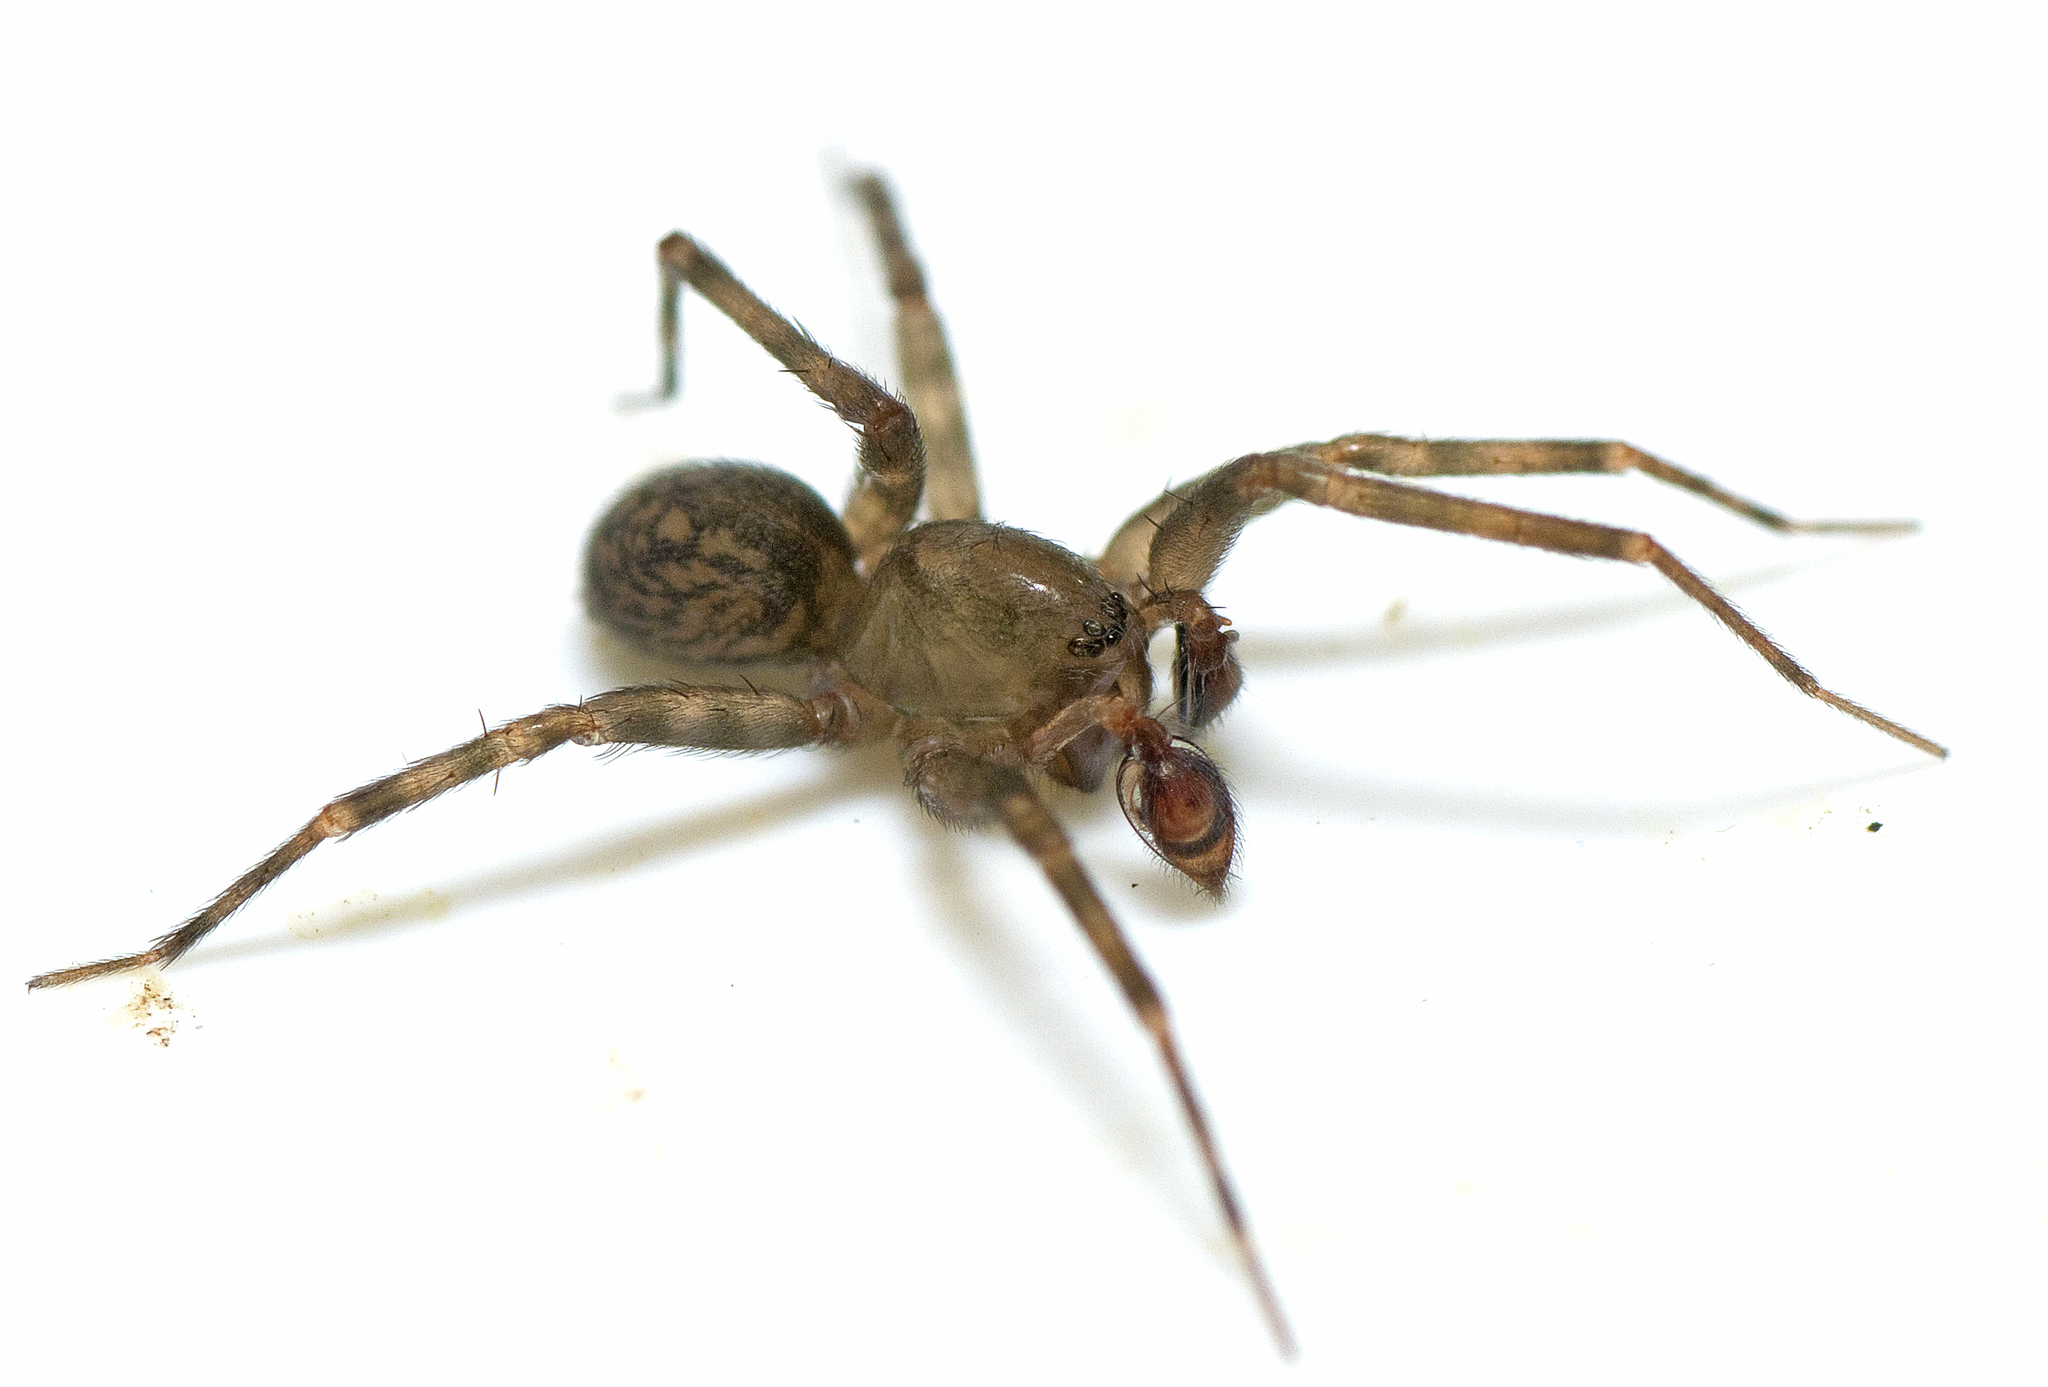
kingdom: Animalia
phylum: Arthropoda
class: Arachnida
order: Araneae
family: Desidae
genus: Barahna
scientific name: Barahna booloumba
